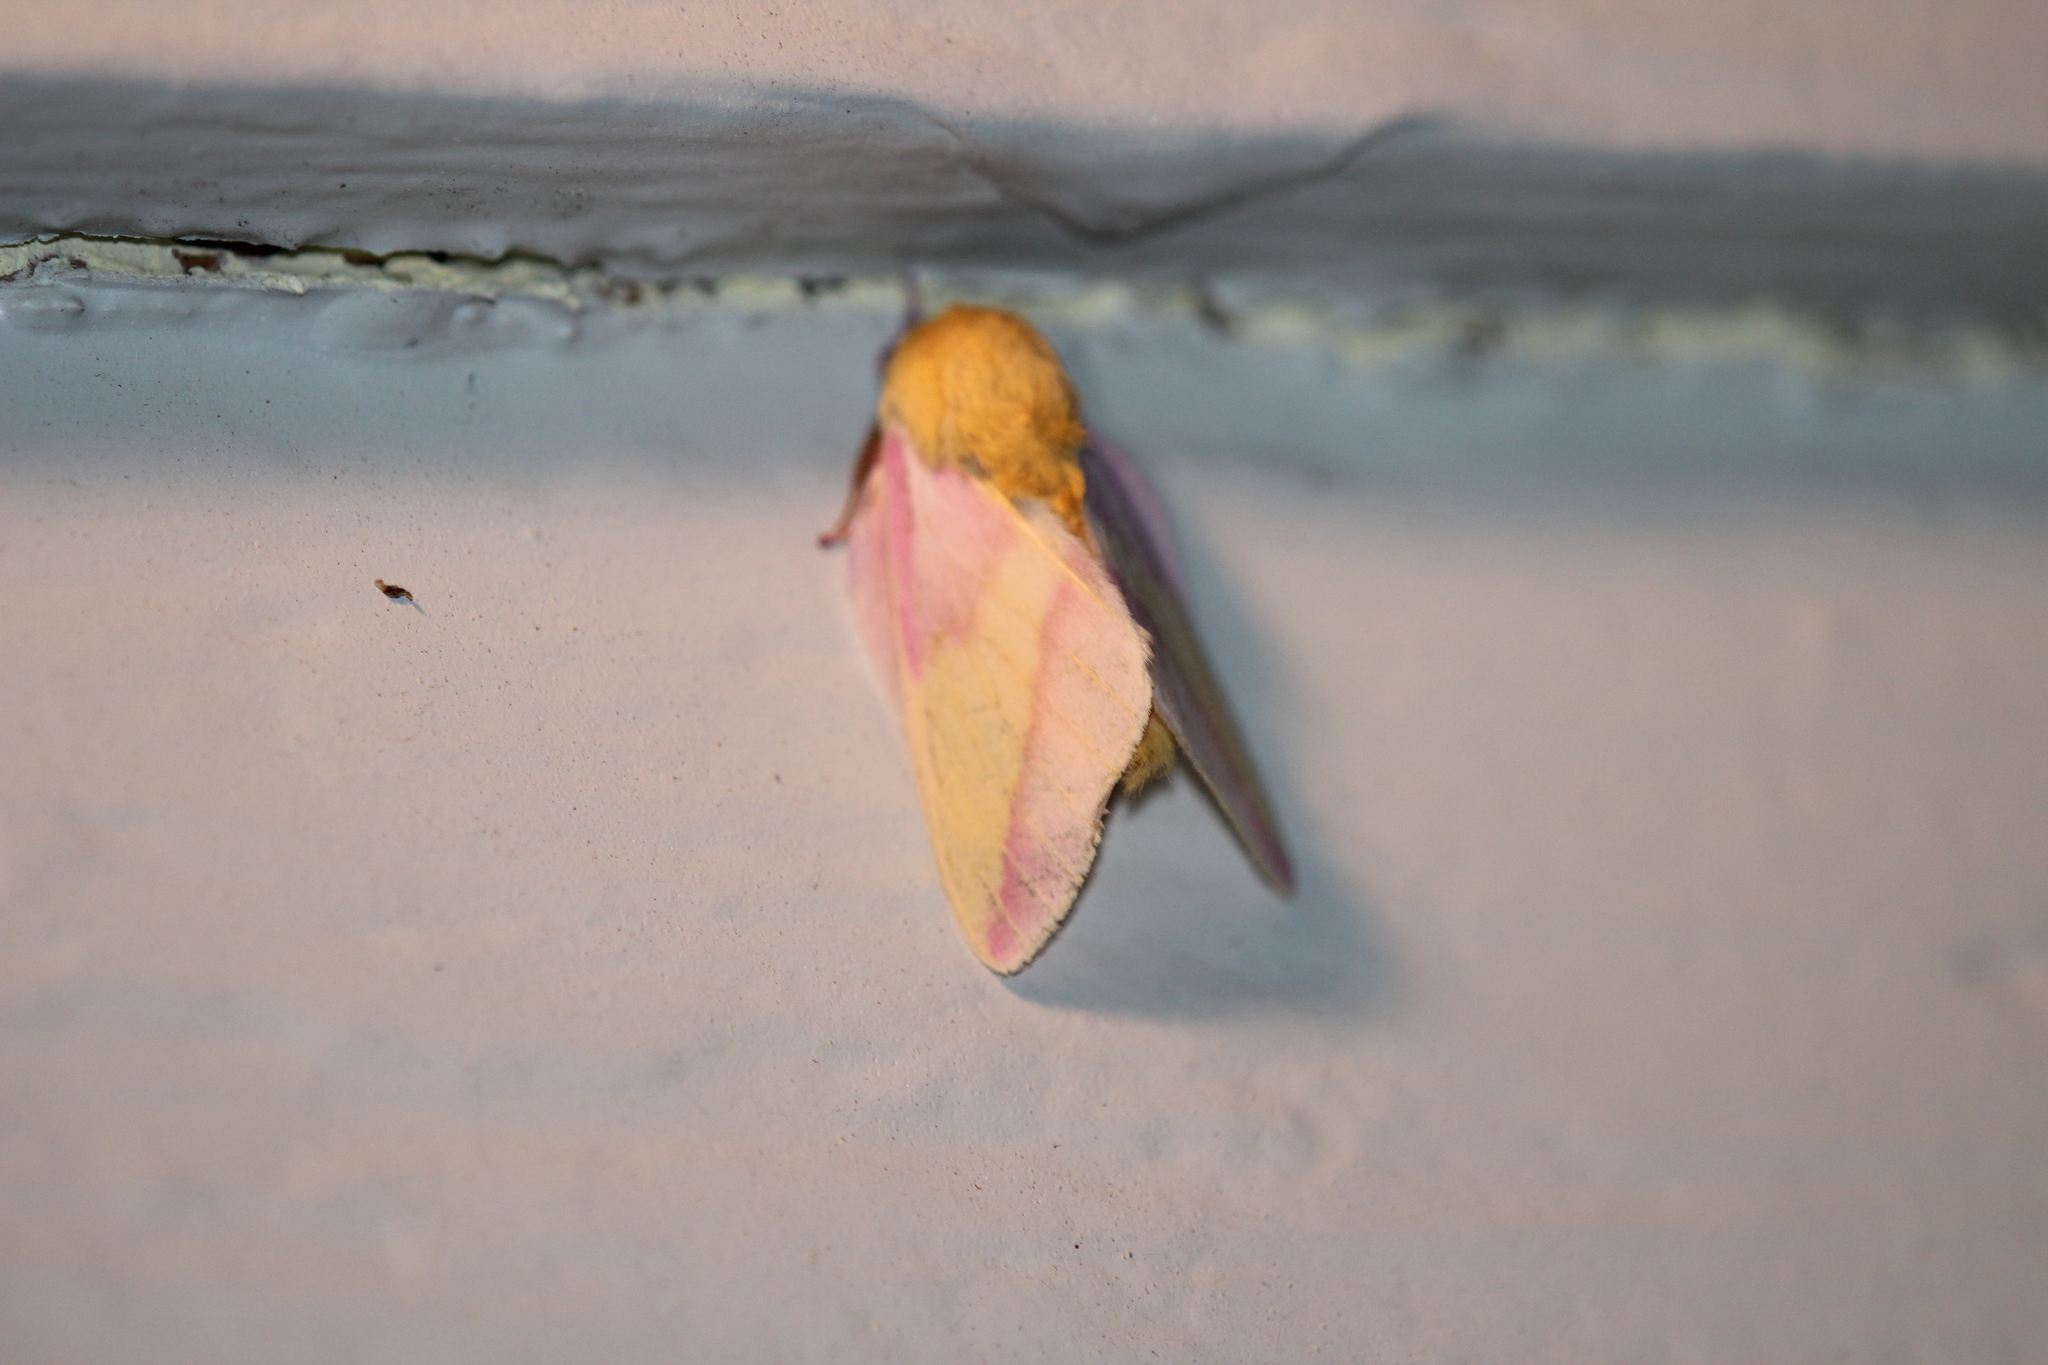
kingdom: Animalia
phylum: Arthropoda
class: Insecta
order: Lepidoptera
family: Saturniidae
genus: Dryocampa
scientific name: Dryocampa rubicunda
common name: Rosy maple moth
